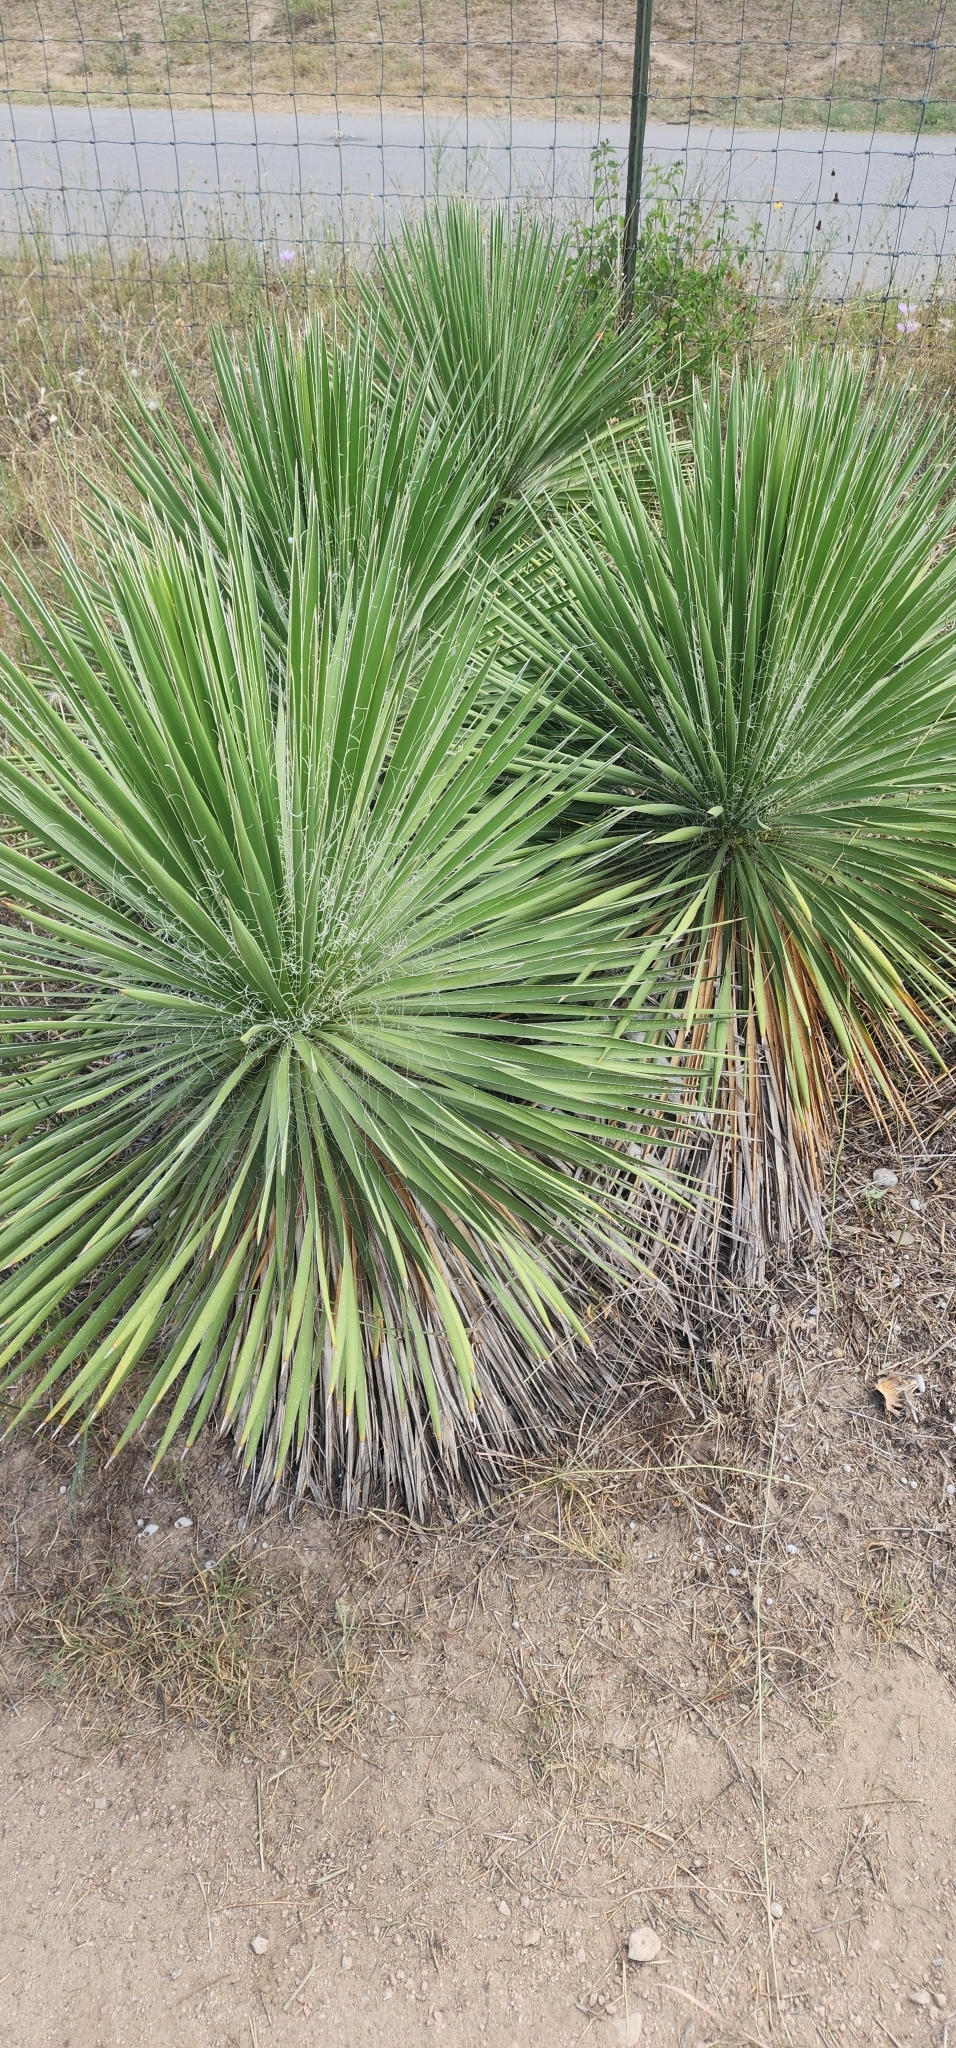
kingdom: Plantae
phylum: Tracheophyta
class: Liliopsida
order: Asparagales
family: Asparagaceae
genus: Yucca
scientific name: Yucca constricta
